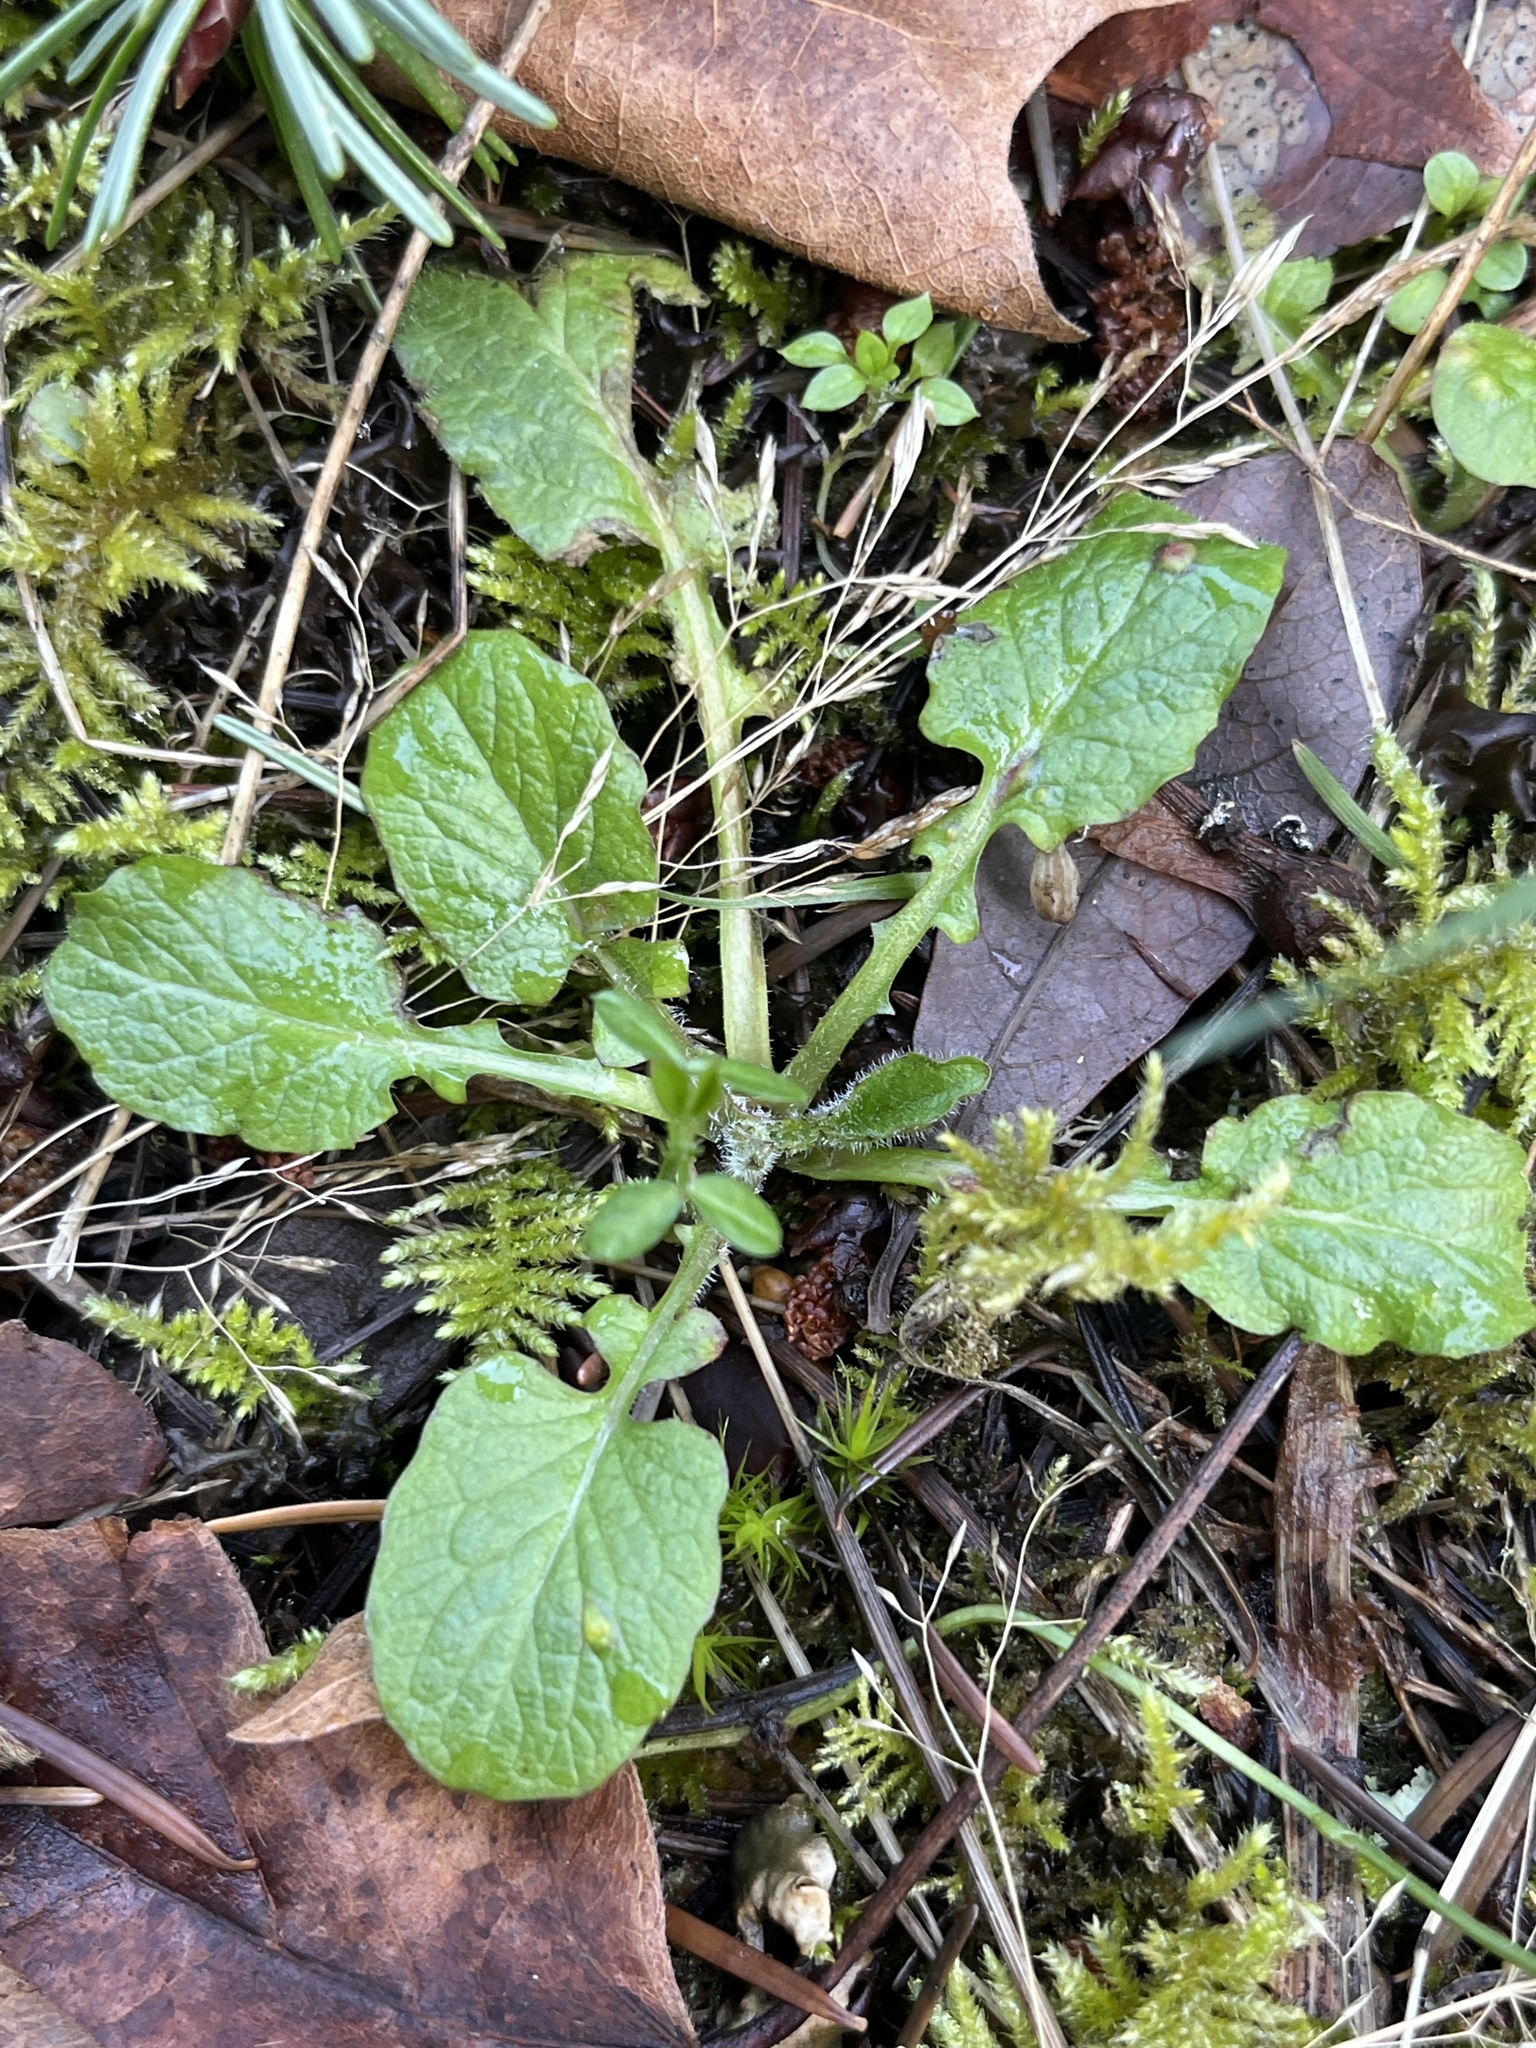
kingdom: Plantae
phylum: Tracheophyta
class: Magnoliopsida
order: Asterales
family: Asteraceae
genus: Lapsana
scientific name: Lapsana communis
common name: Nipplewort
